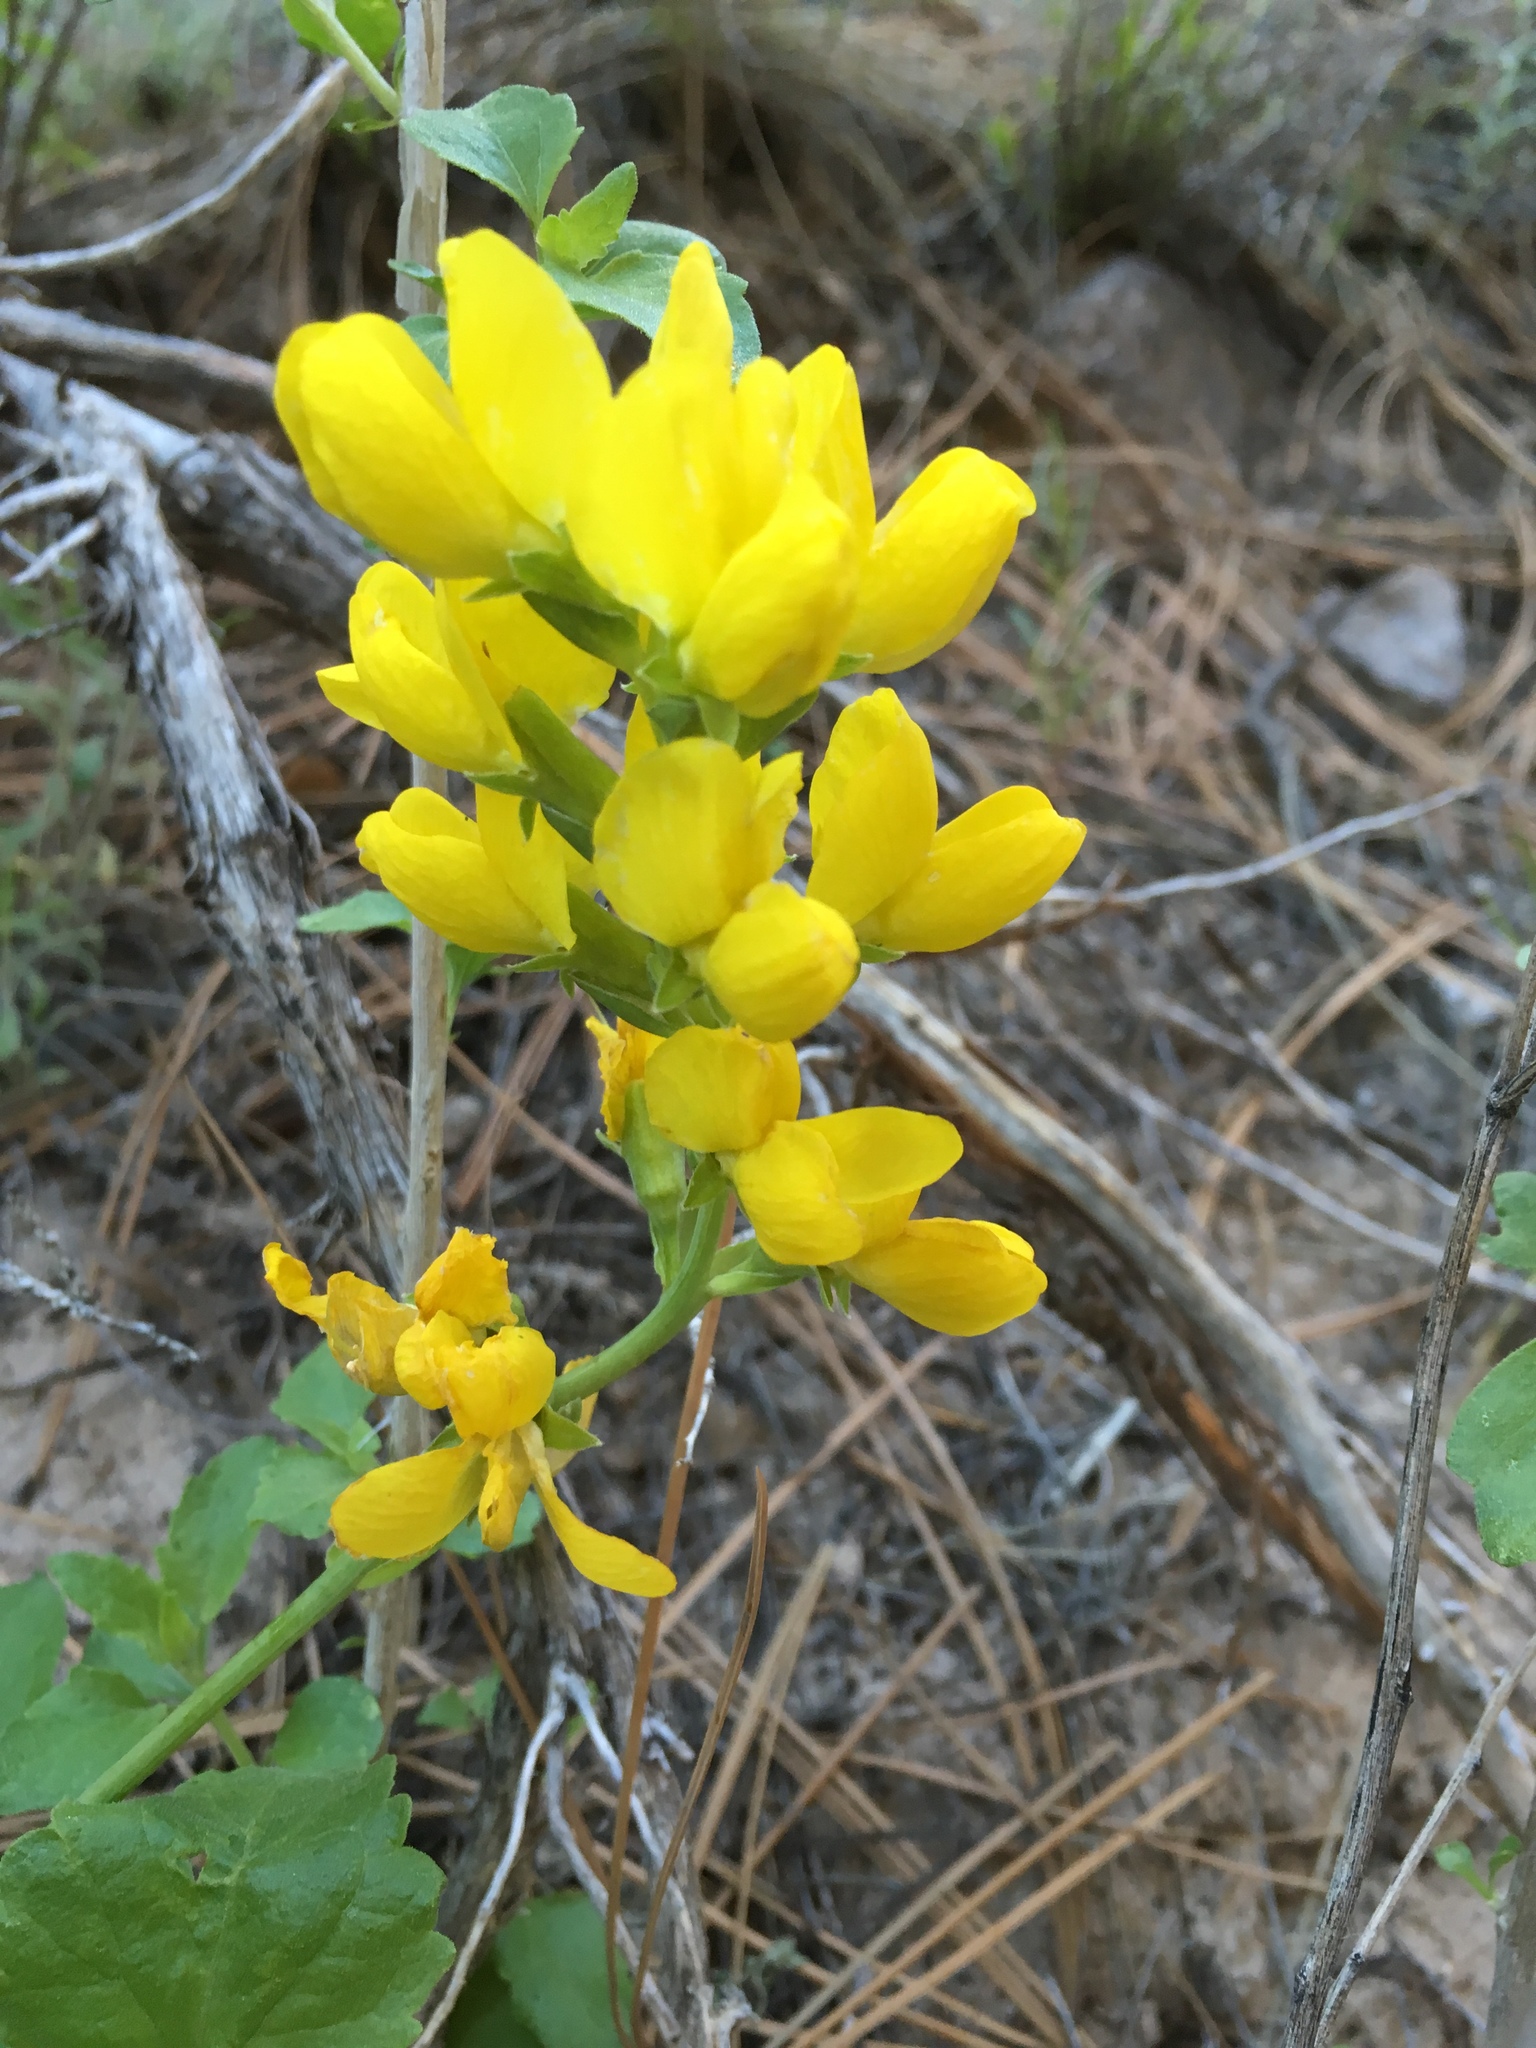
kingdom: Plantae
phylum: Tracheophyta
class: Magnoliopsida
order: Fabales
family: Fabaceae
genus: Thermopsis
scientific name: Thermopsis rhombifolia
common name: Circle-pod-pea
